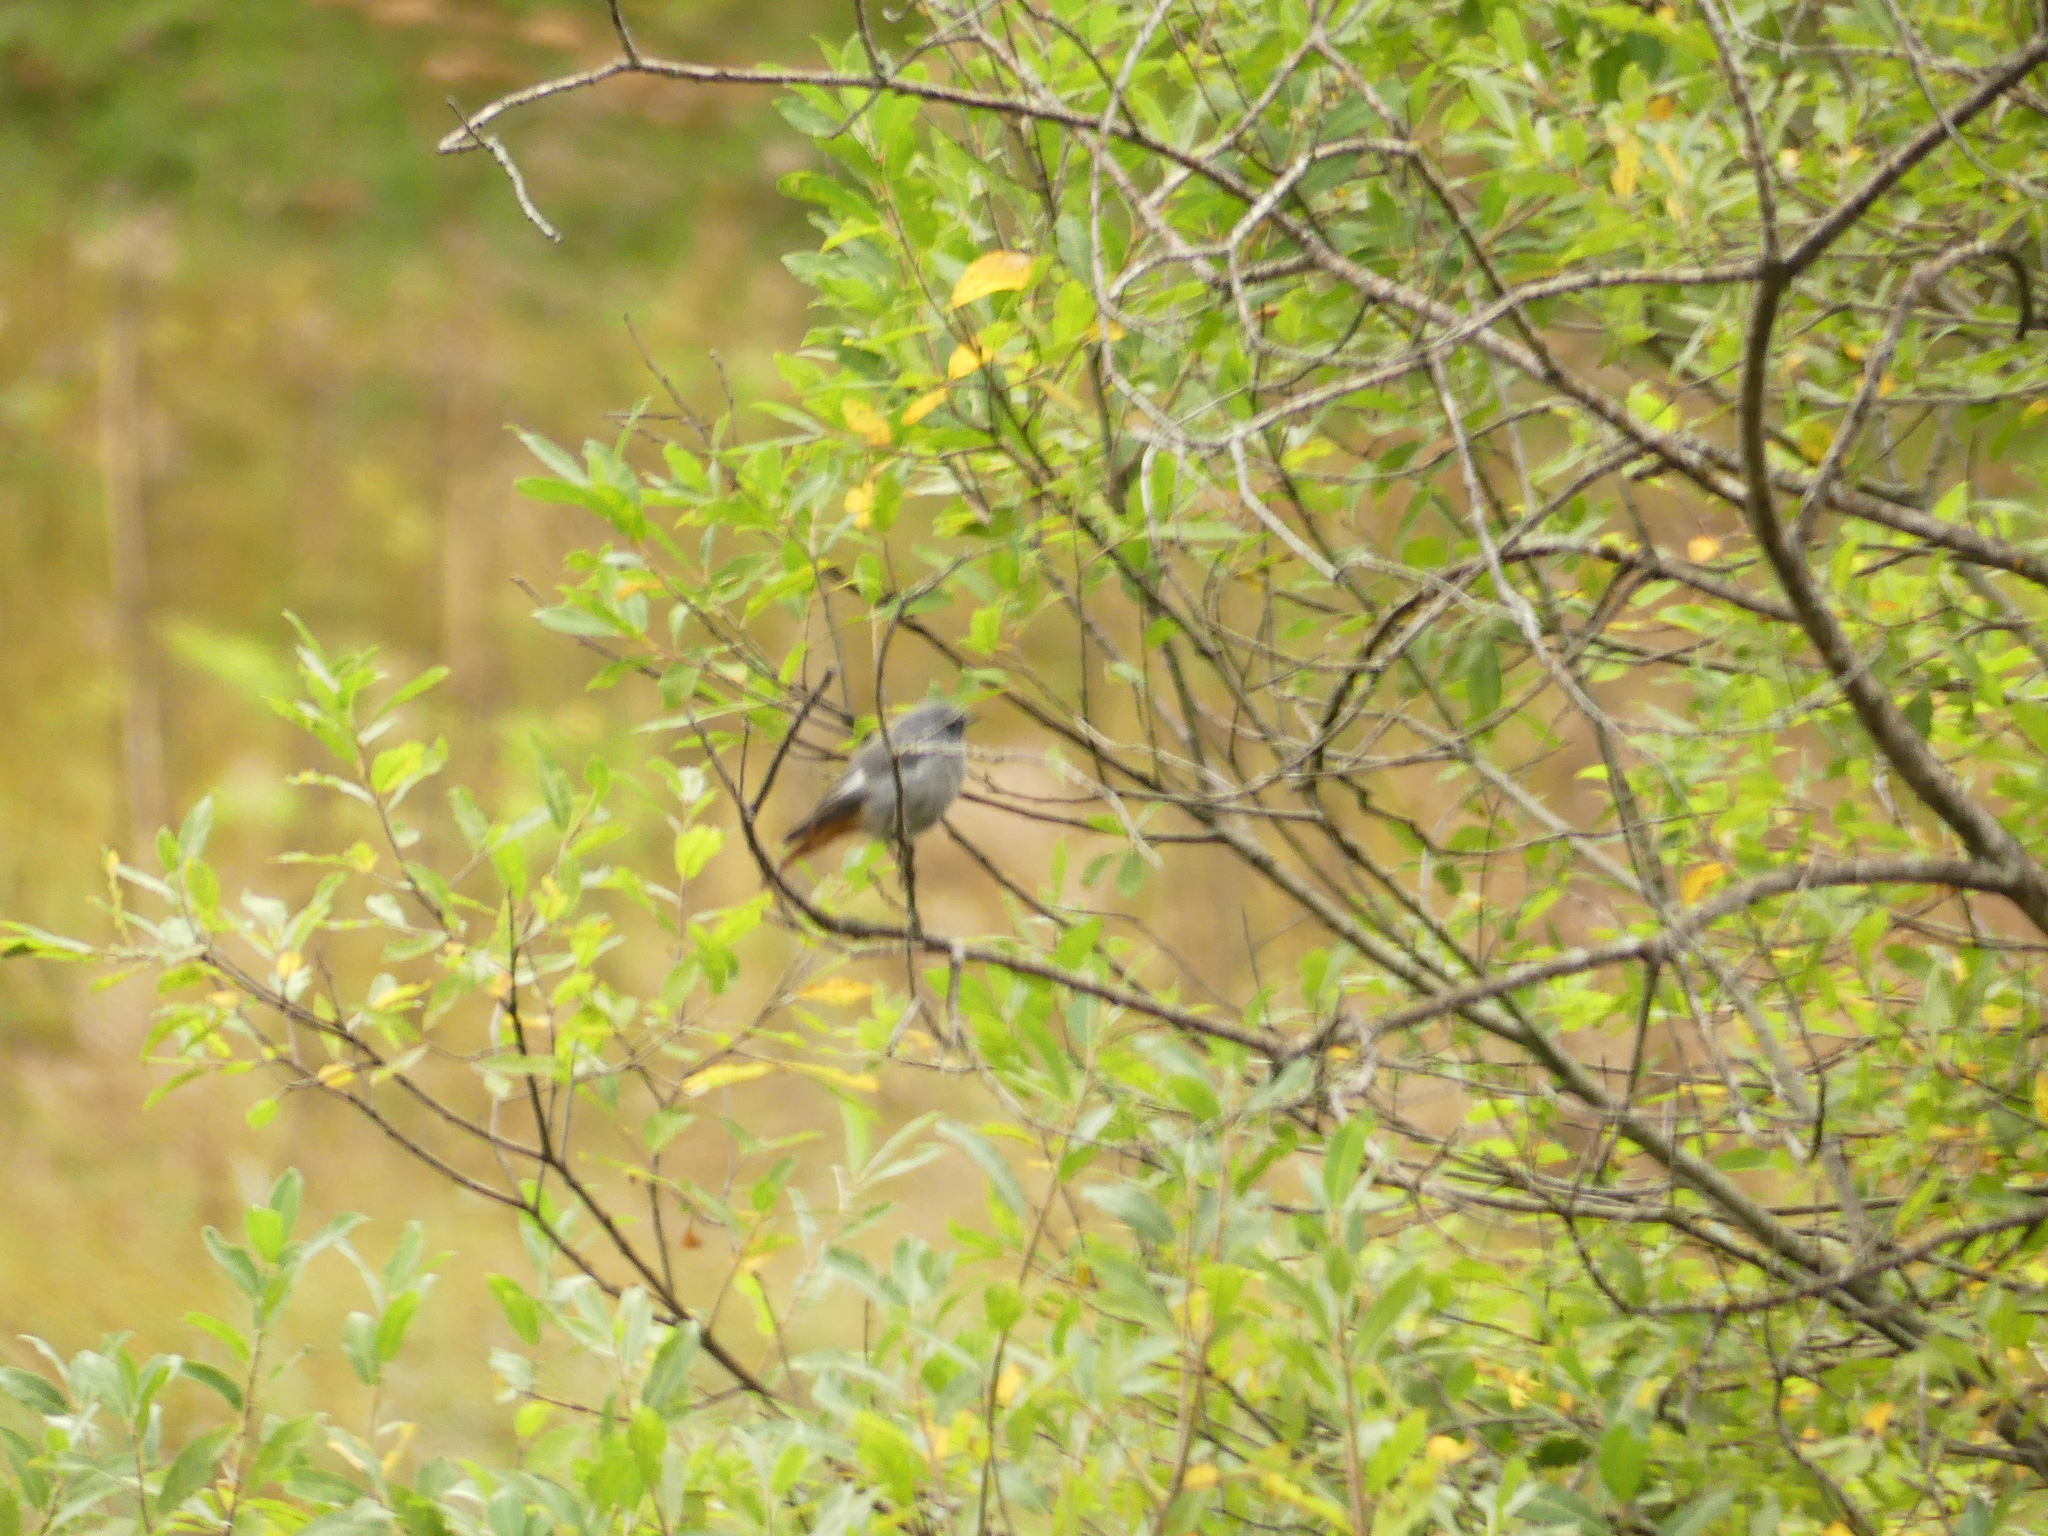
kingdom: Animalia
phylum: Chordata
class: Aves
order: Passeriformes
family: Muscicapidae
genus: Phoenicurus
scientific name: Phoenicurus ochruros
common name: Black redstart
